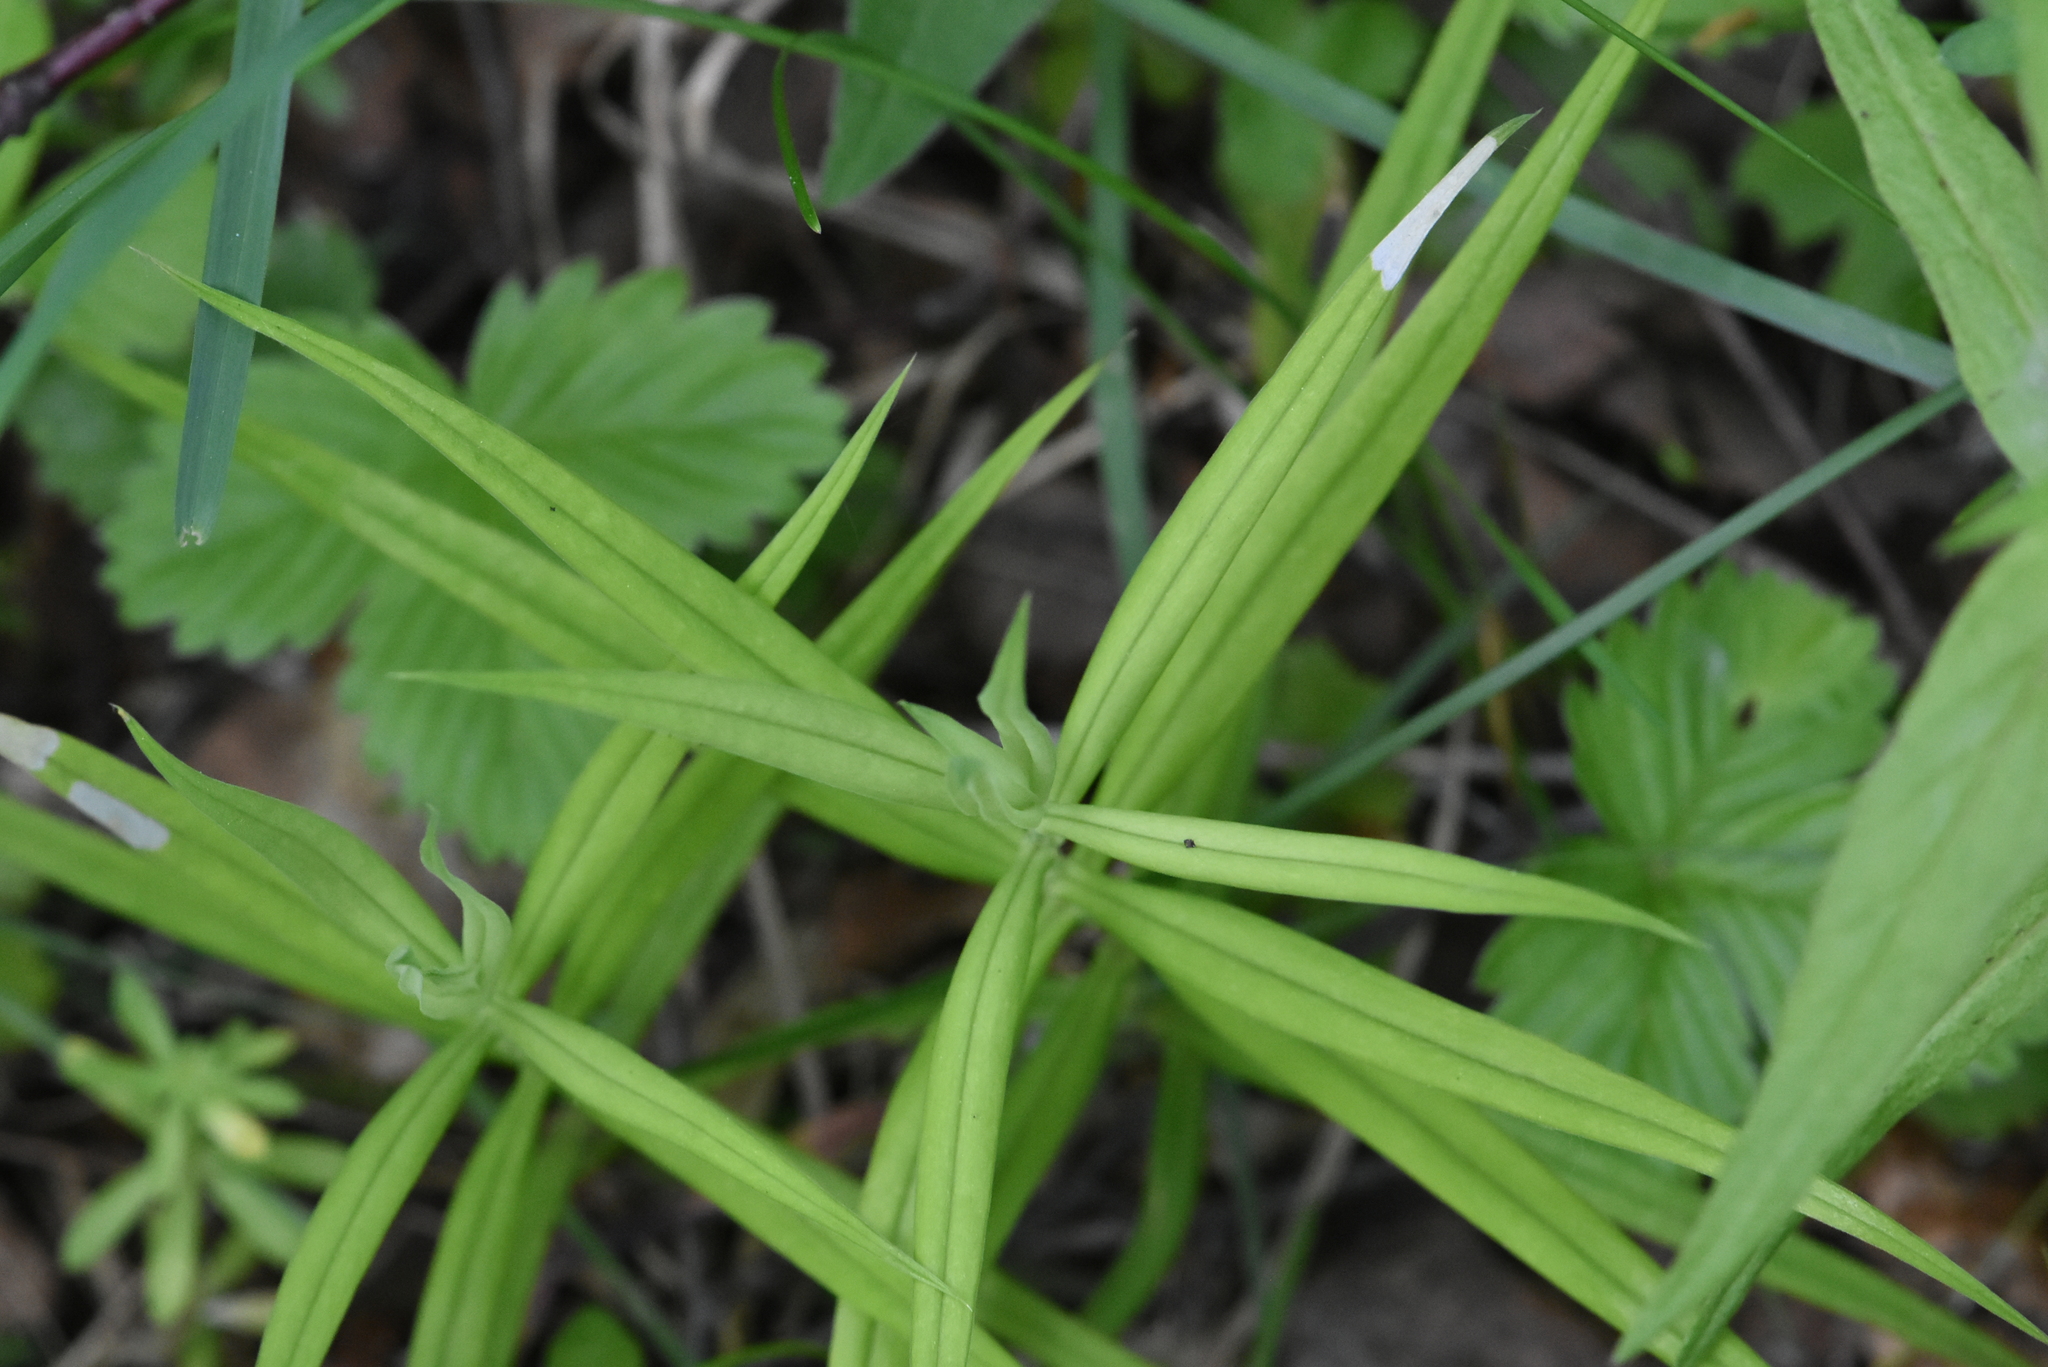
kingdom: Plantae
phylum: Tracheophyta
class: Magnoliopsida
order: Caryophyllales
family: Caryophyllaceae
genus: Rabelera
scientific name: Rabelera holostea
